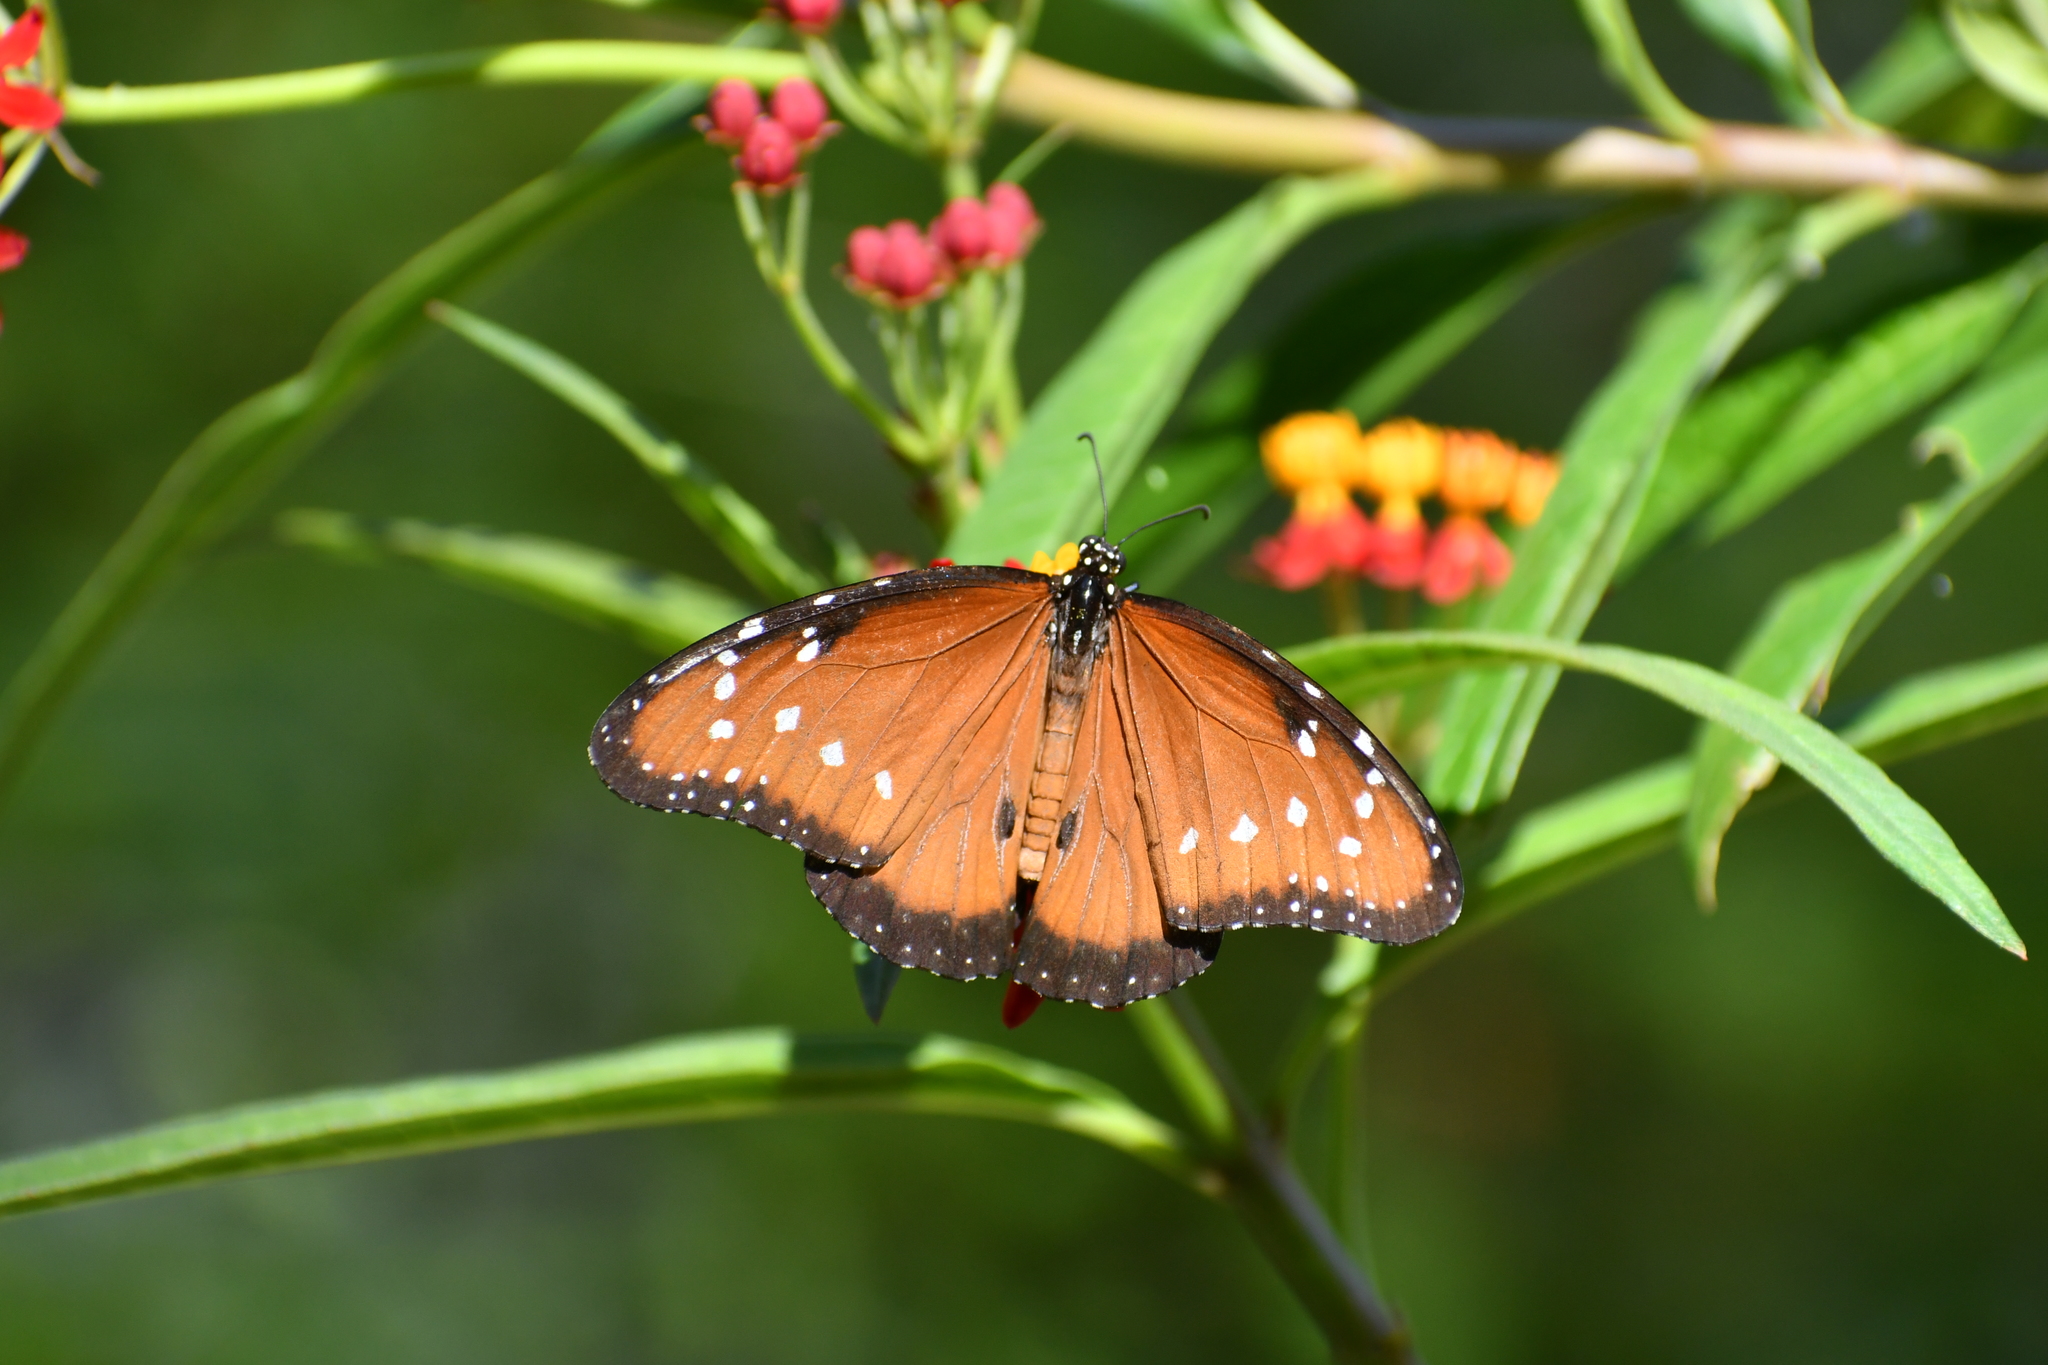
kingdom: Animalia
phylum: Arthropoda
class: Insecta
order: Lepidoptera
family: Nymphalidae
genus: Danaus
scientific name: Danaus gilippus
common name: Queen
